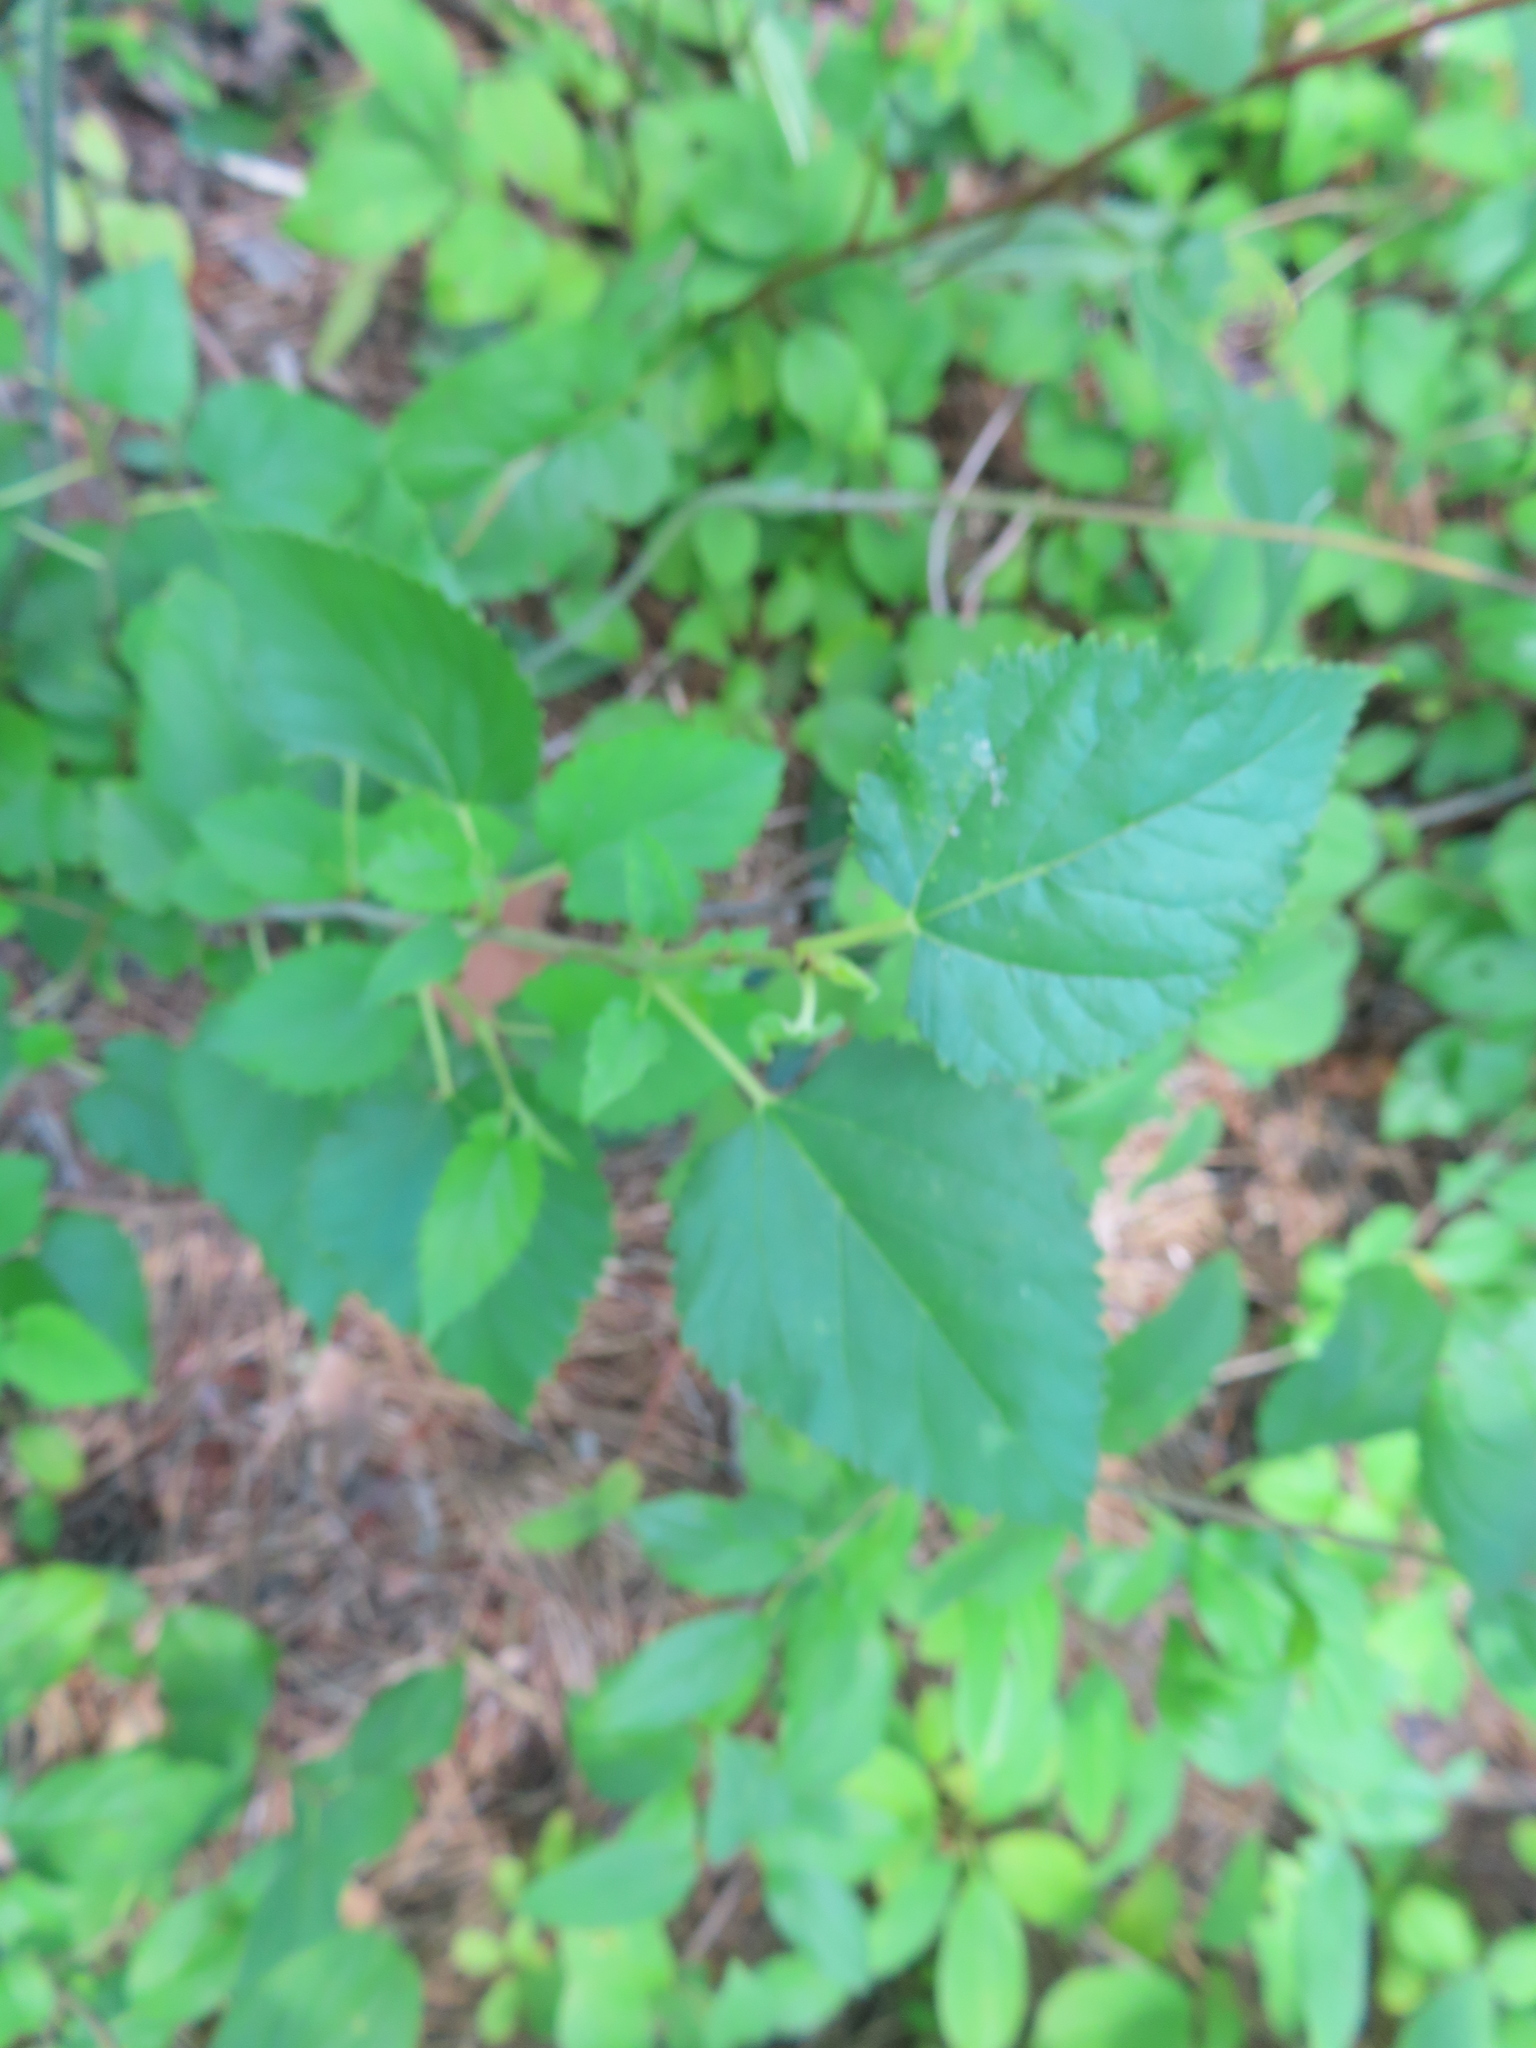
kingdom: Plantae
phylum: Tracheophyta
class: Magnoliopsida
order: Rosales
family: Moraceae
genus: Morus
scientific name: Morus alba
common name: White mulberry
